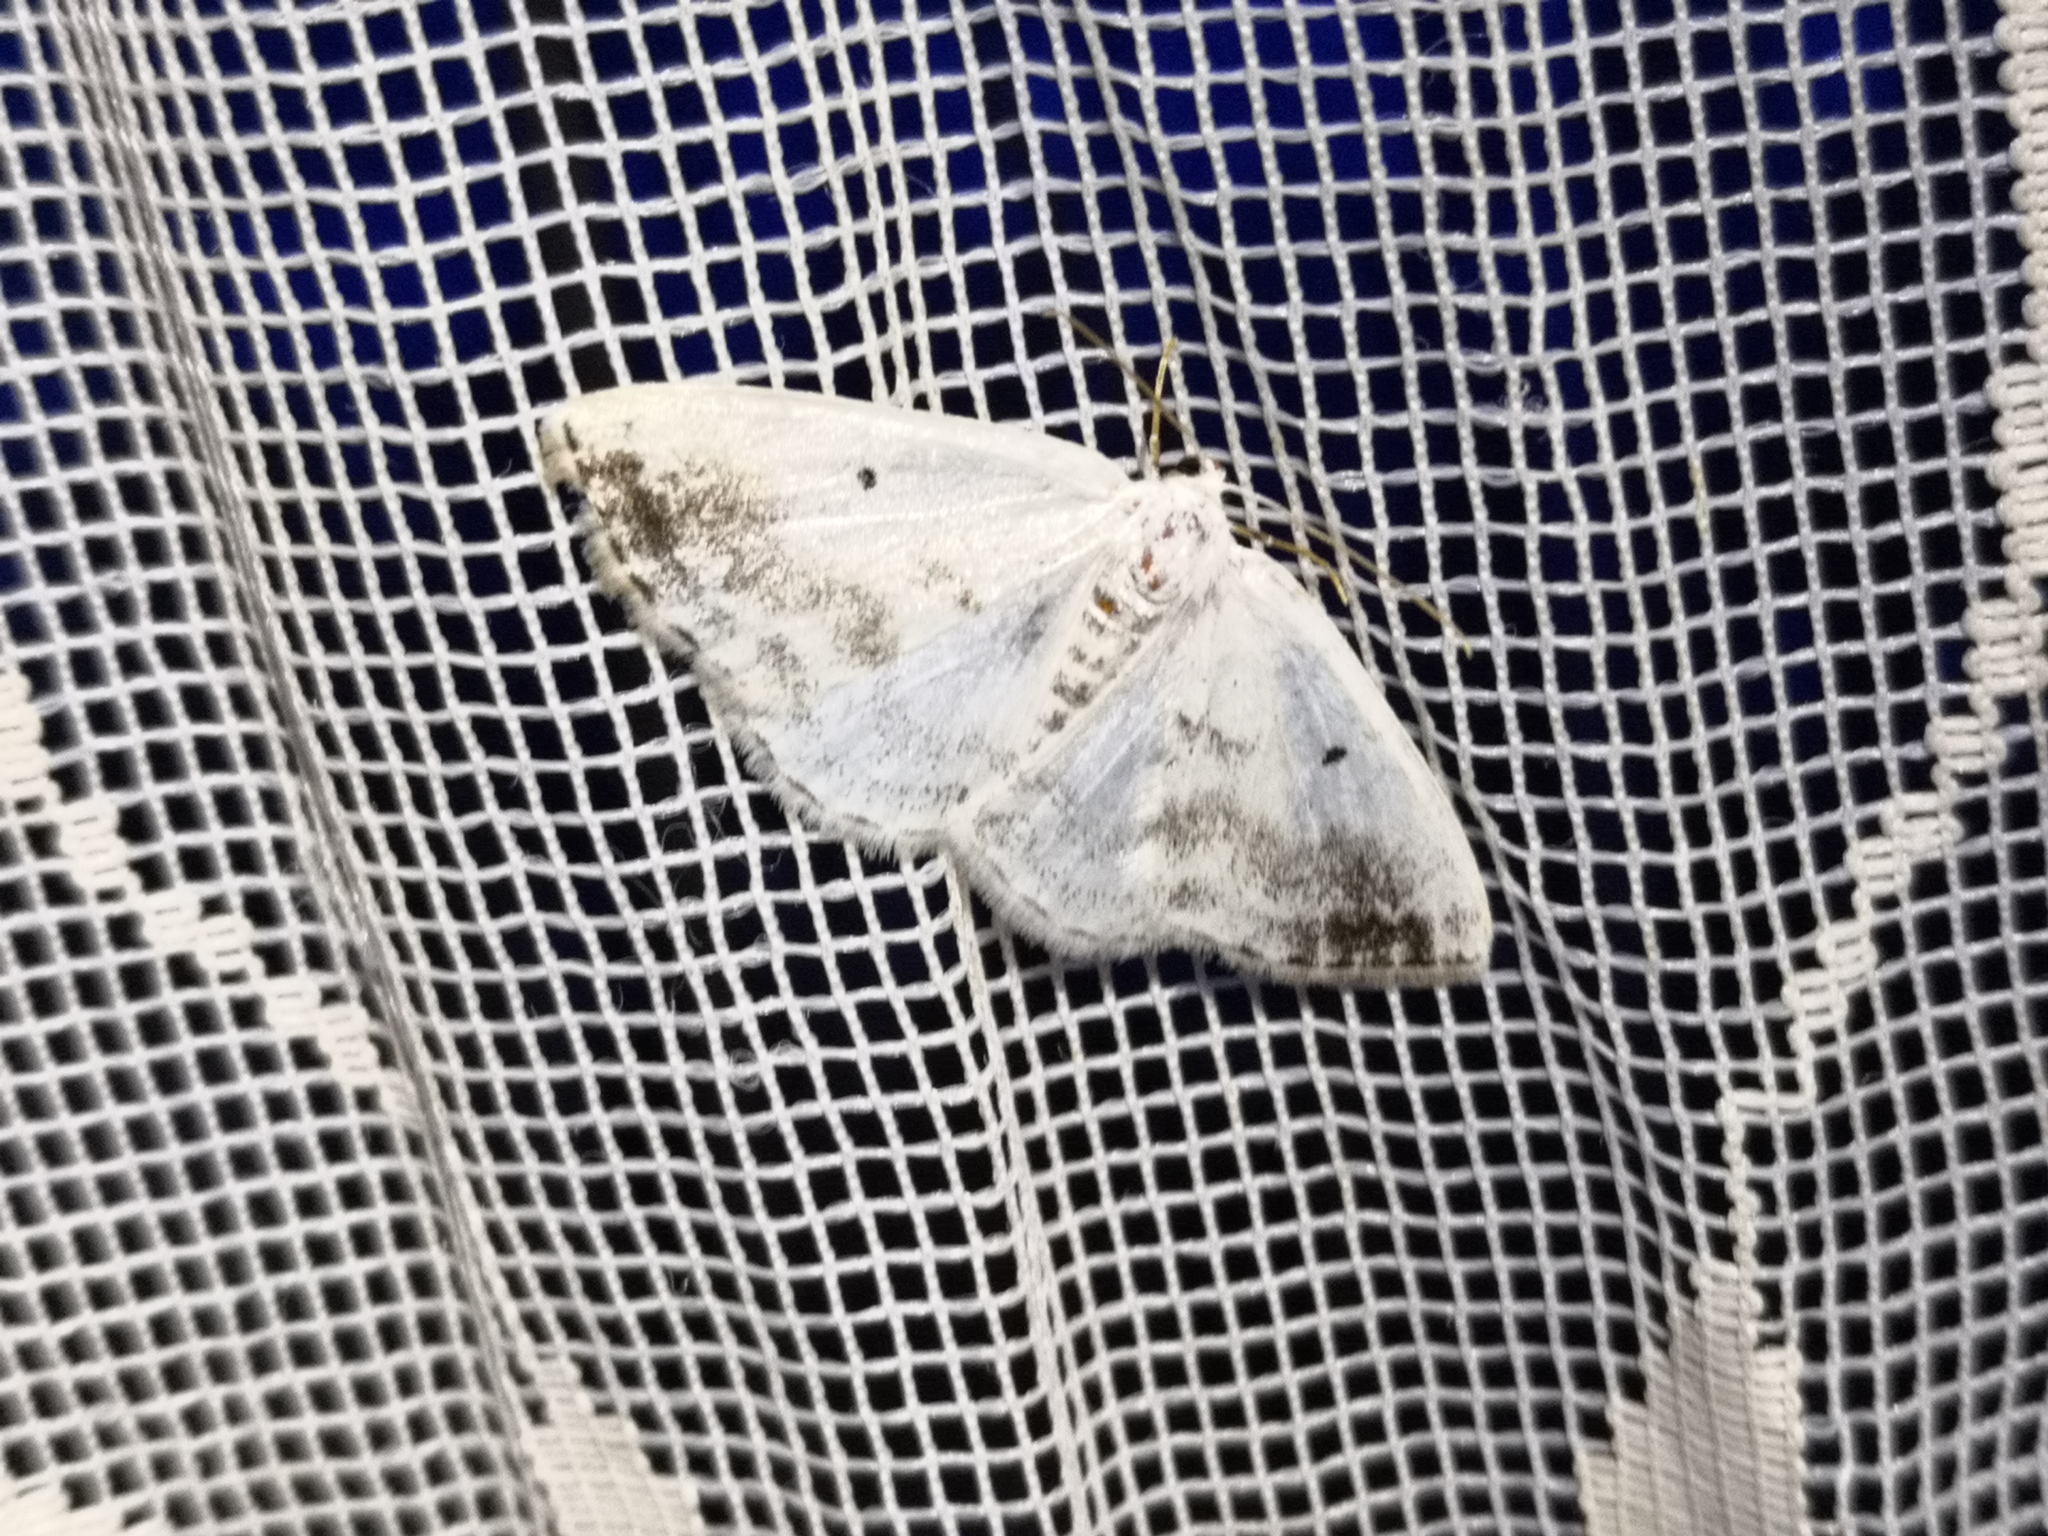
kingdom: Animalia
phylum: Arthropoda
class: Insecta
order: Lepidoptera
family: Geometridae
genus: Lomographa
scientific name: Lomographa temerata
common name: Clouded silver
